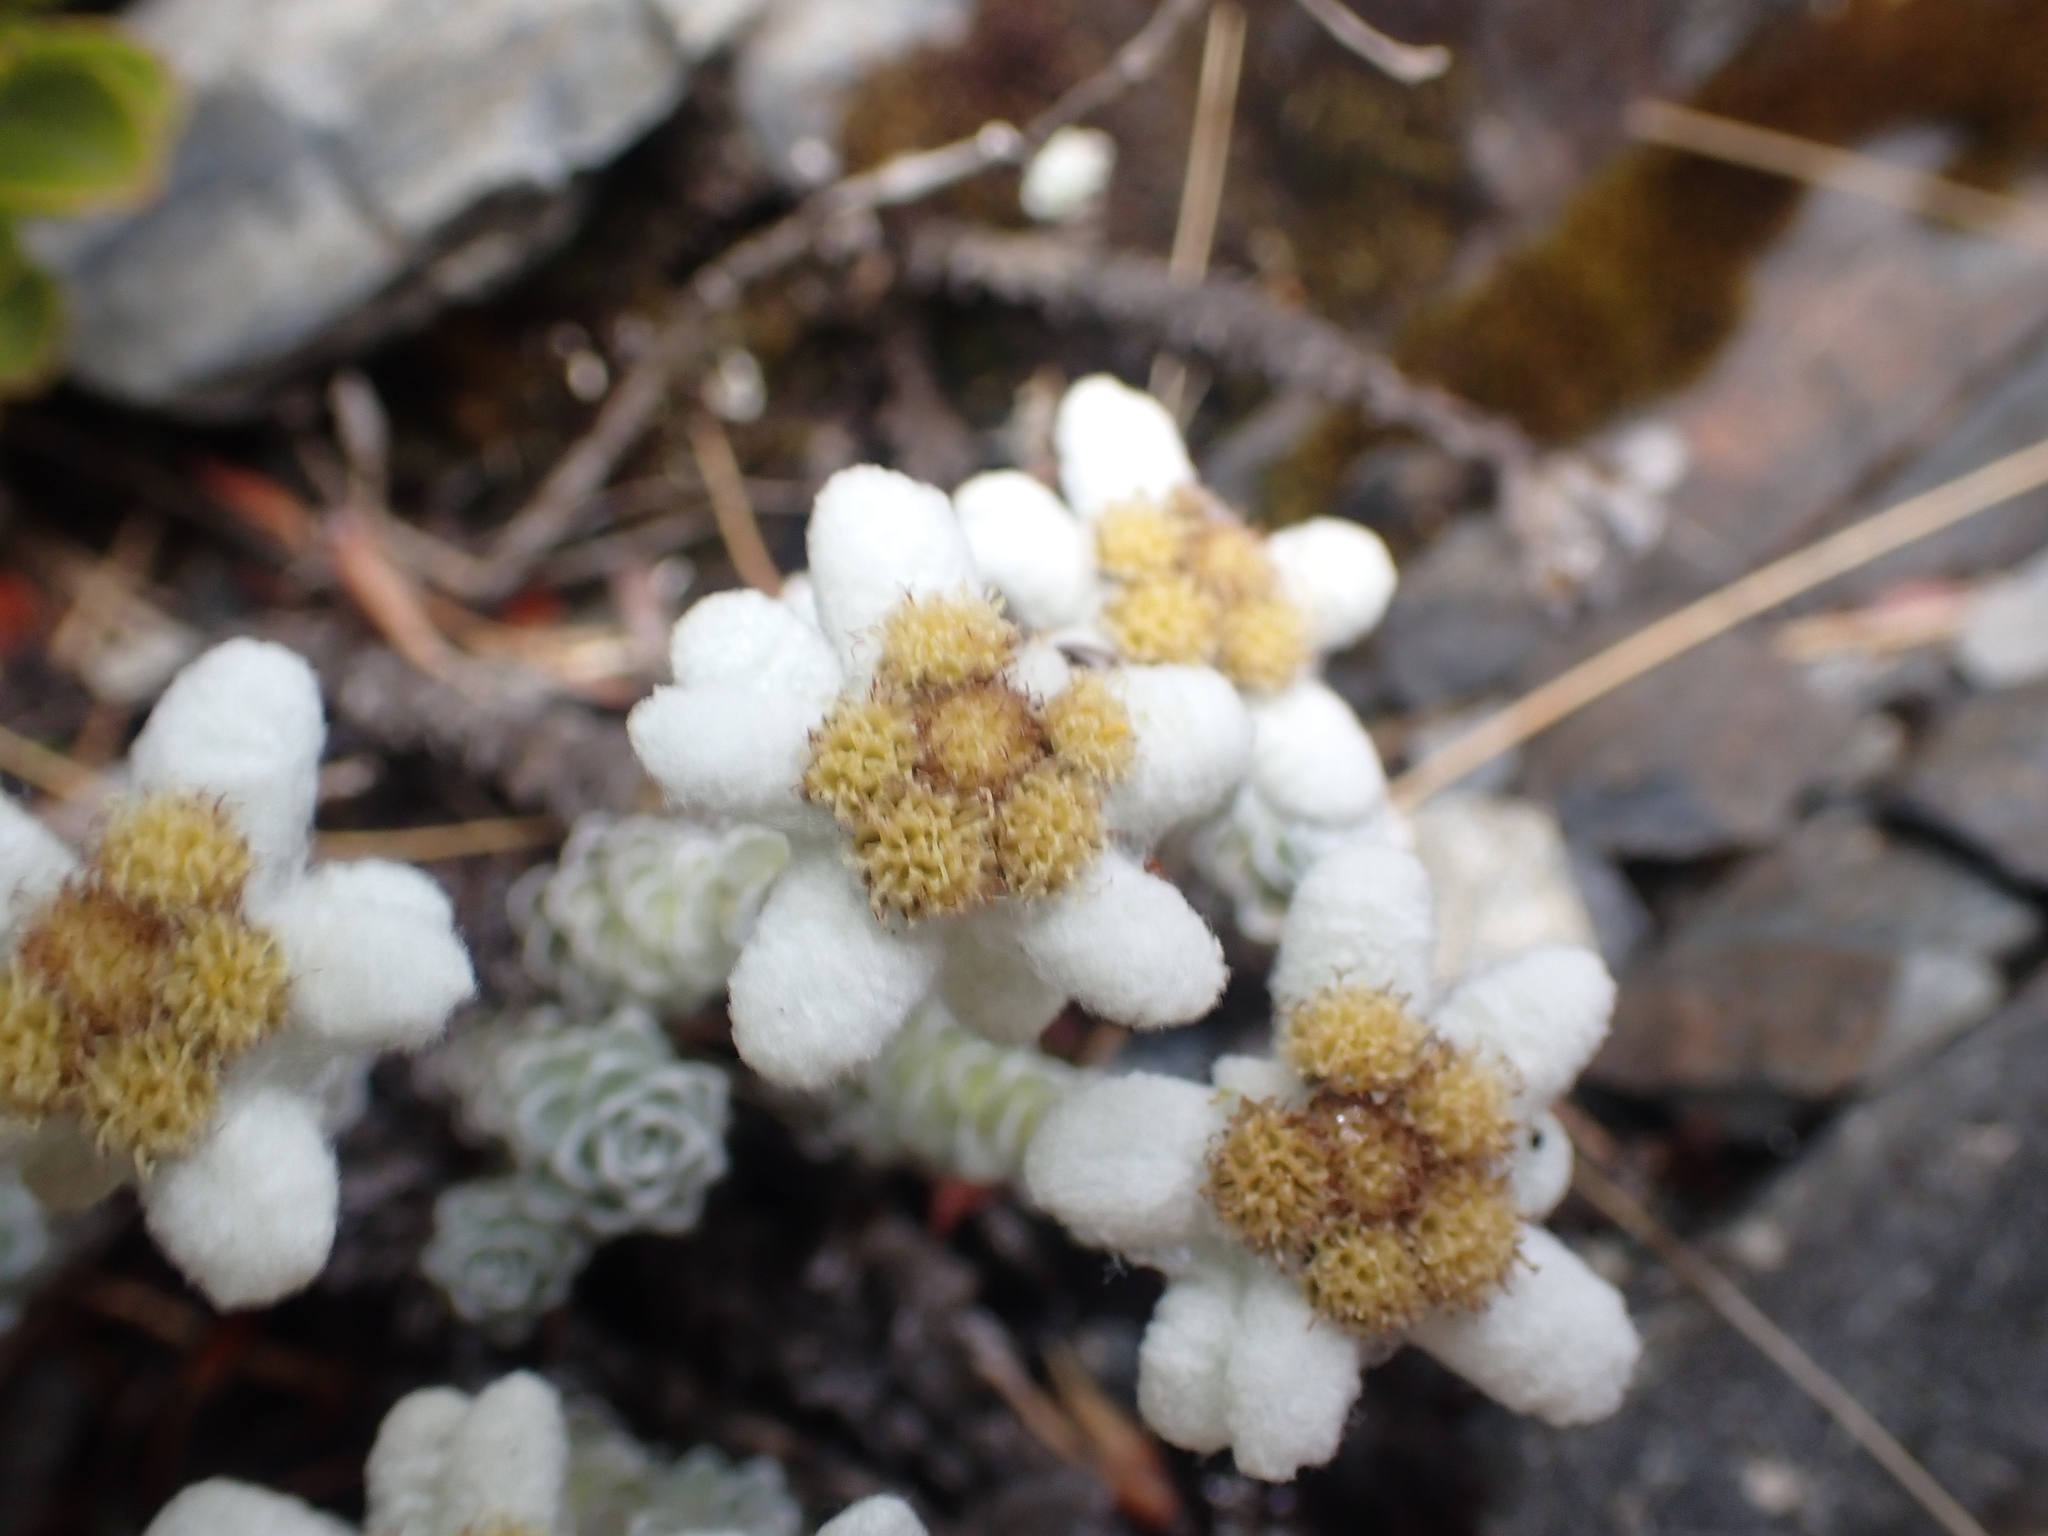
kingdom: Plantae
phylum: Tracheophyta
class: Magnoliopsida
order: Asterales
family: Asteraceae
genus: Leucogenes
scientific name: Leucogenes grandiceps
